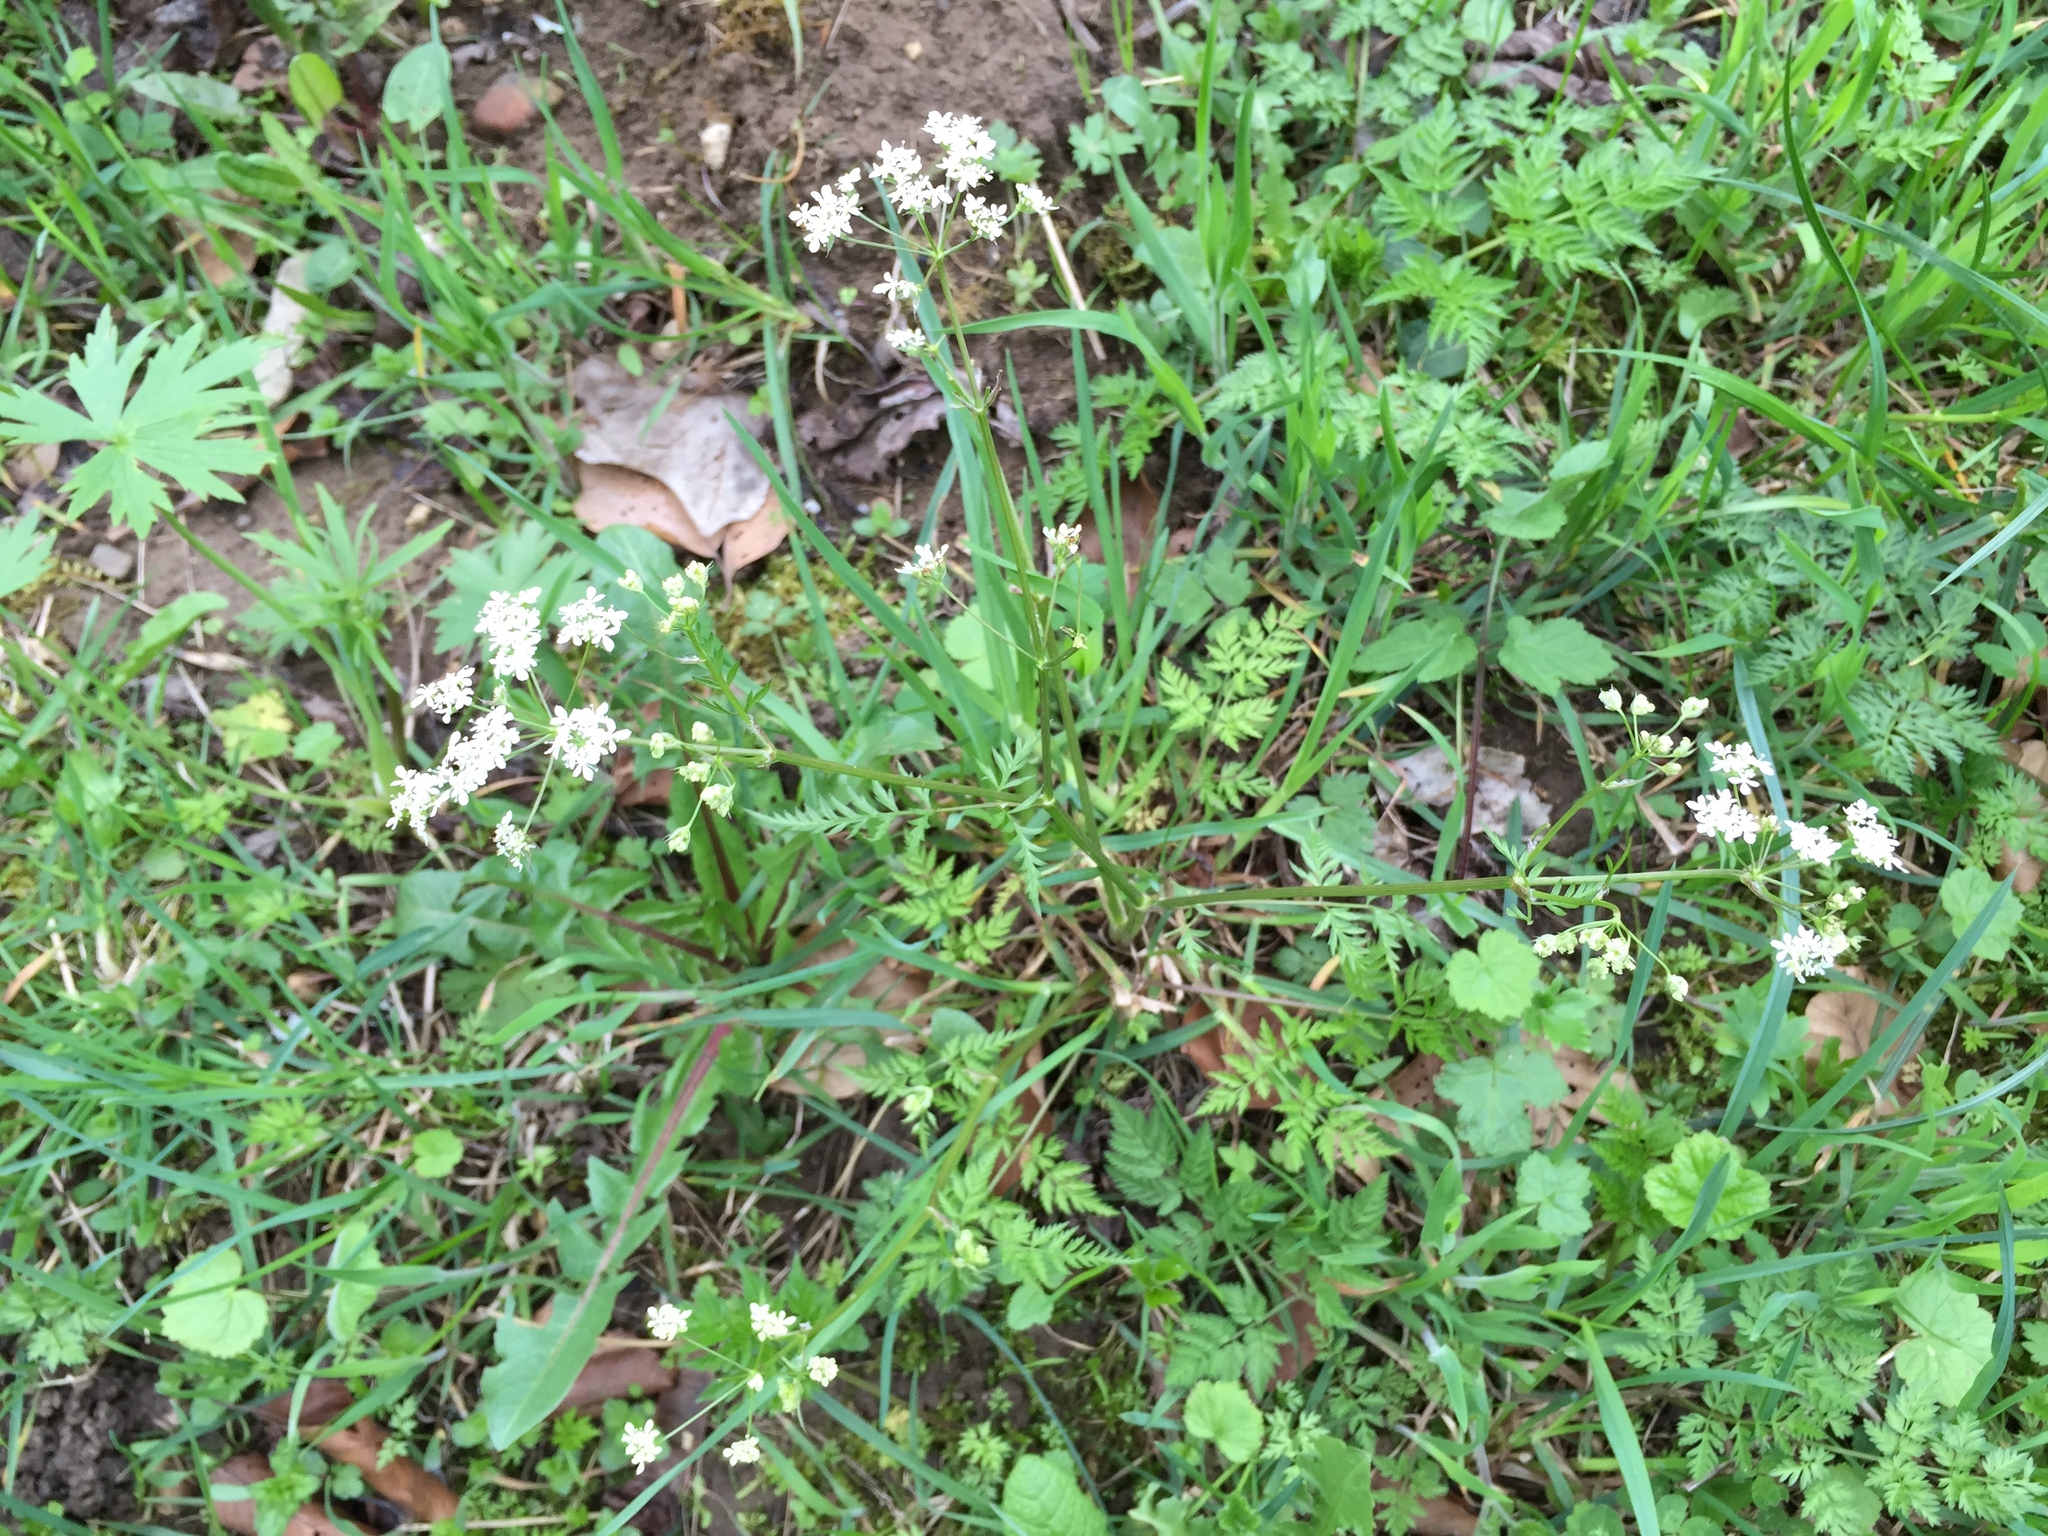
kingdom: Plantae
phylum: Tracheophyta
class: Magnoliopsida
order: Apiales
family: Apiaceae
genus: Anthriscus
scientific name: Anthriscus sylvestris
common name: Cow parsley
